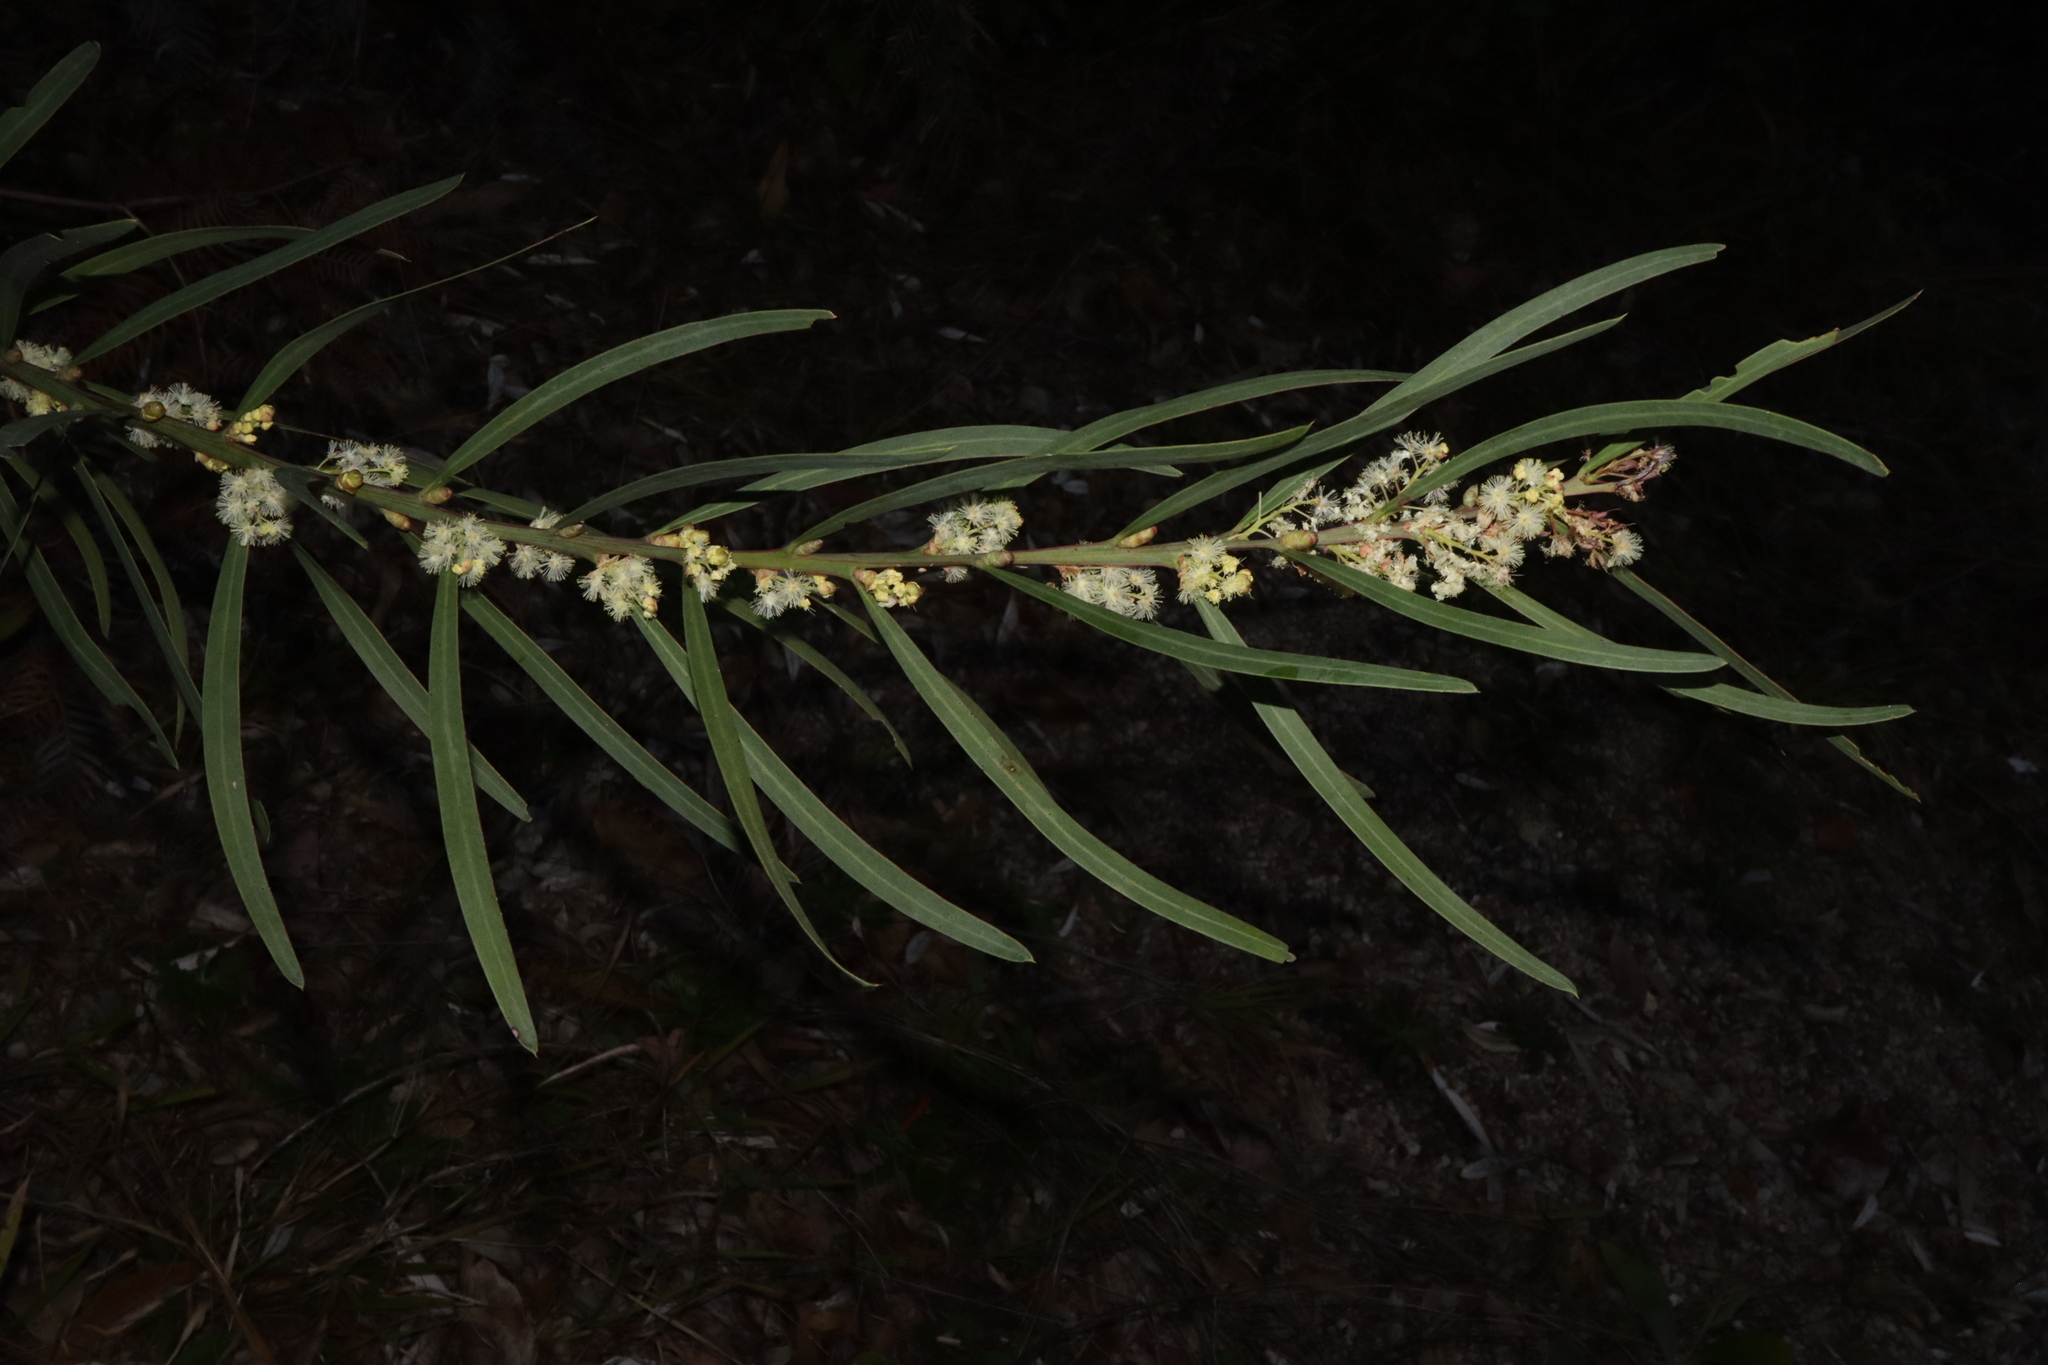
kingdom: Plantae
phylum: Tracheophyta
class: Magnoliopsida
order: Fabales
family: Fabaceae
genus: Acacia
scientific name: Acacia suaveolens
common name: Sweet acacia
